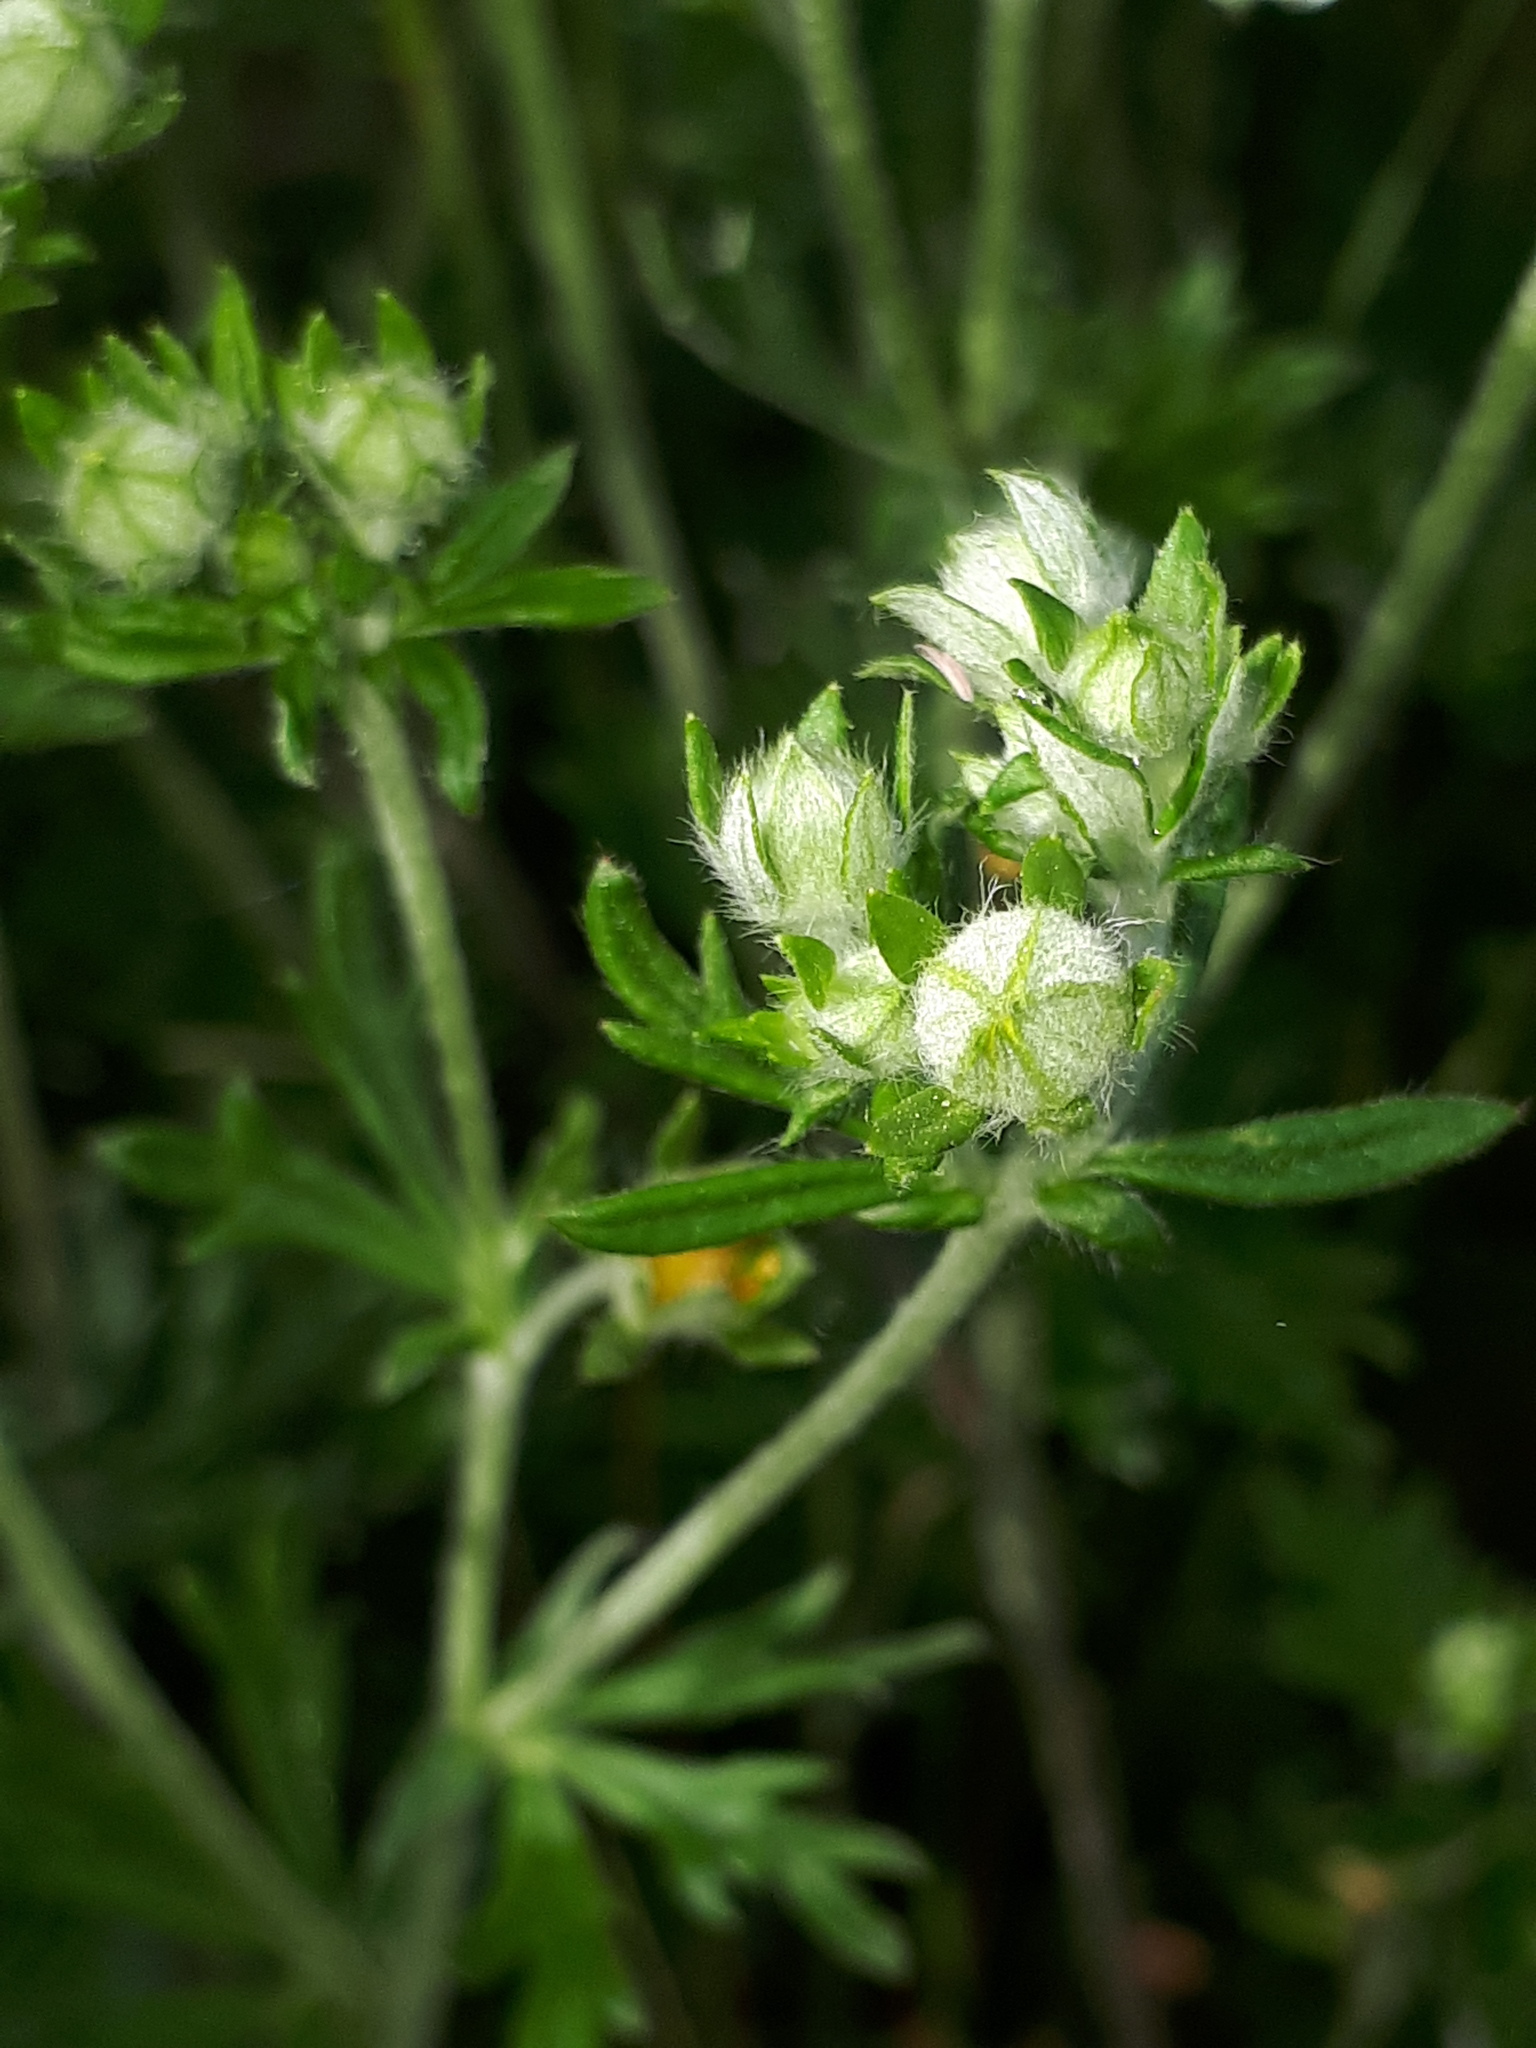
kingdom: Plantae
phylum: Tracheophyta
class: Magnoliopsida
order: Rosales
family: Rosaceae
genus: Potentilla
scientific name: Potentilla argentea
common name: Hoary cinquefoil
